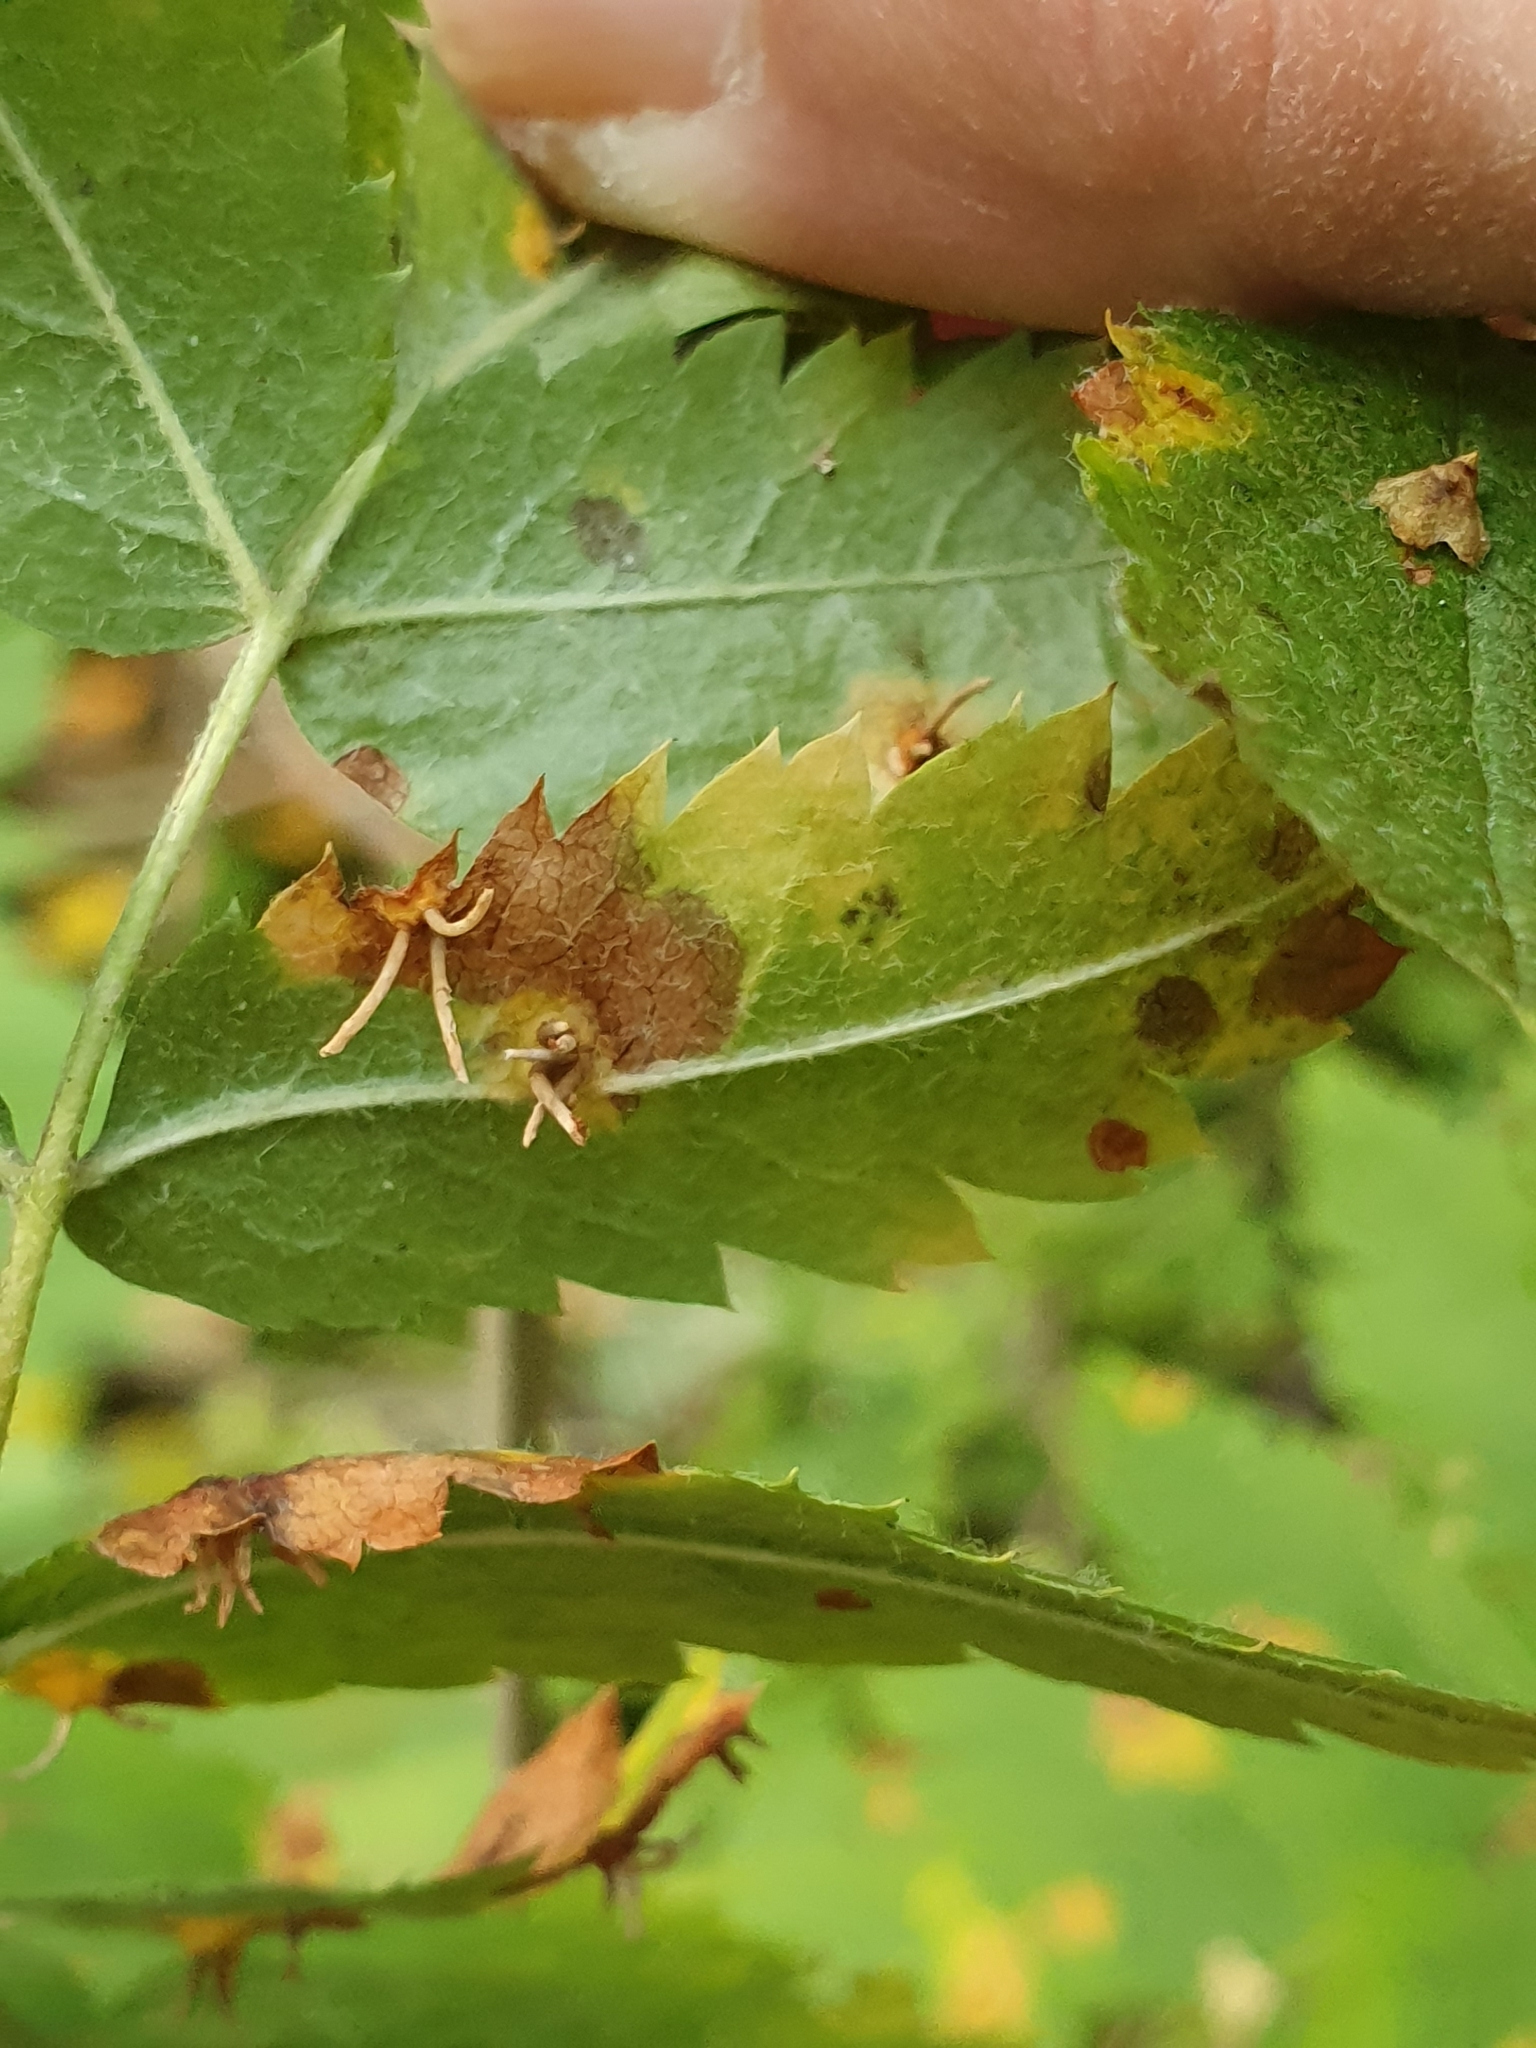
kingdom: Fungi
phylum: Basidiomycota
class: Pucciniomycetes
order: Pucciniales
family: Gymnosporangiaceae
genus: Gymnosporangium
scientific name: Gymnosporangium cornutum
